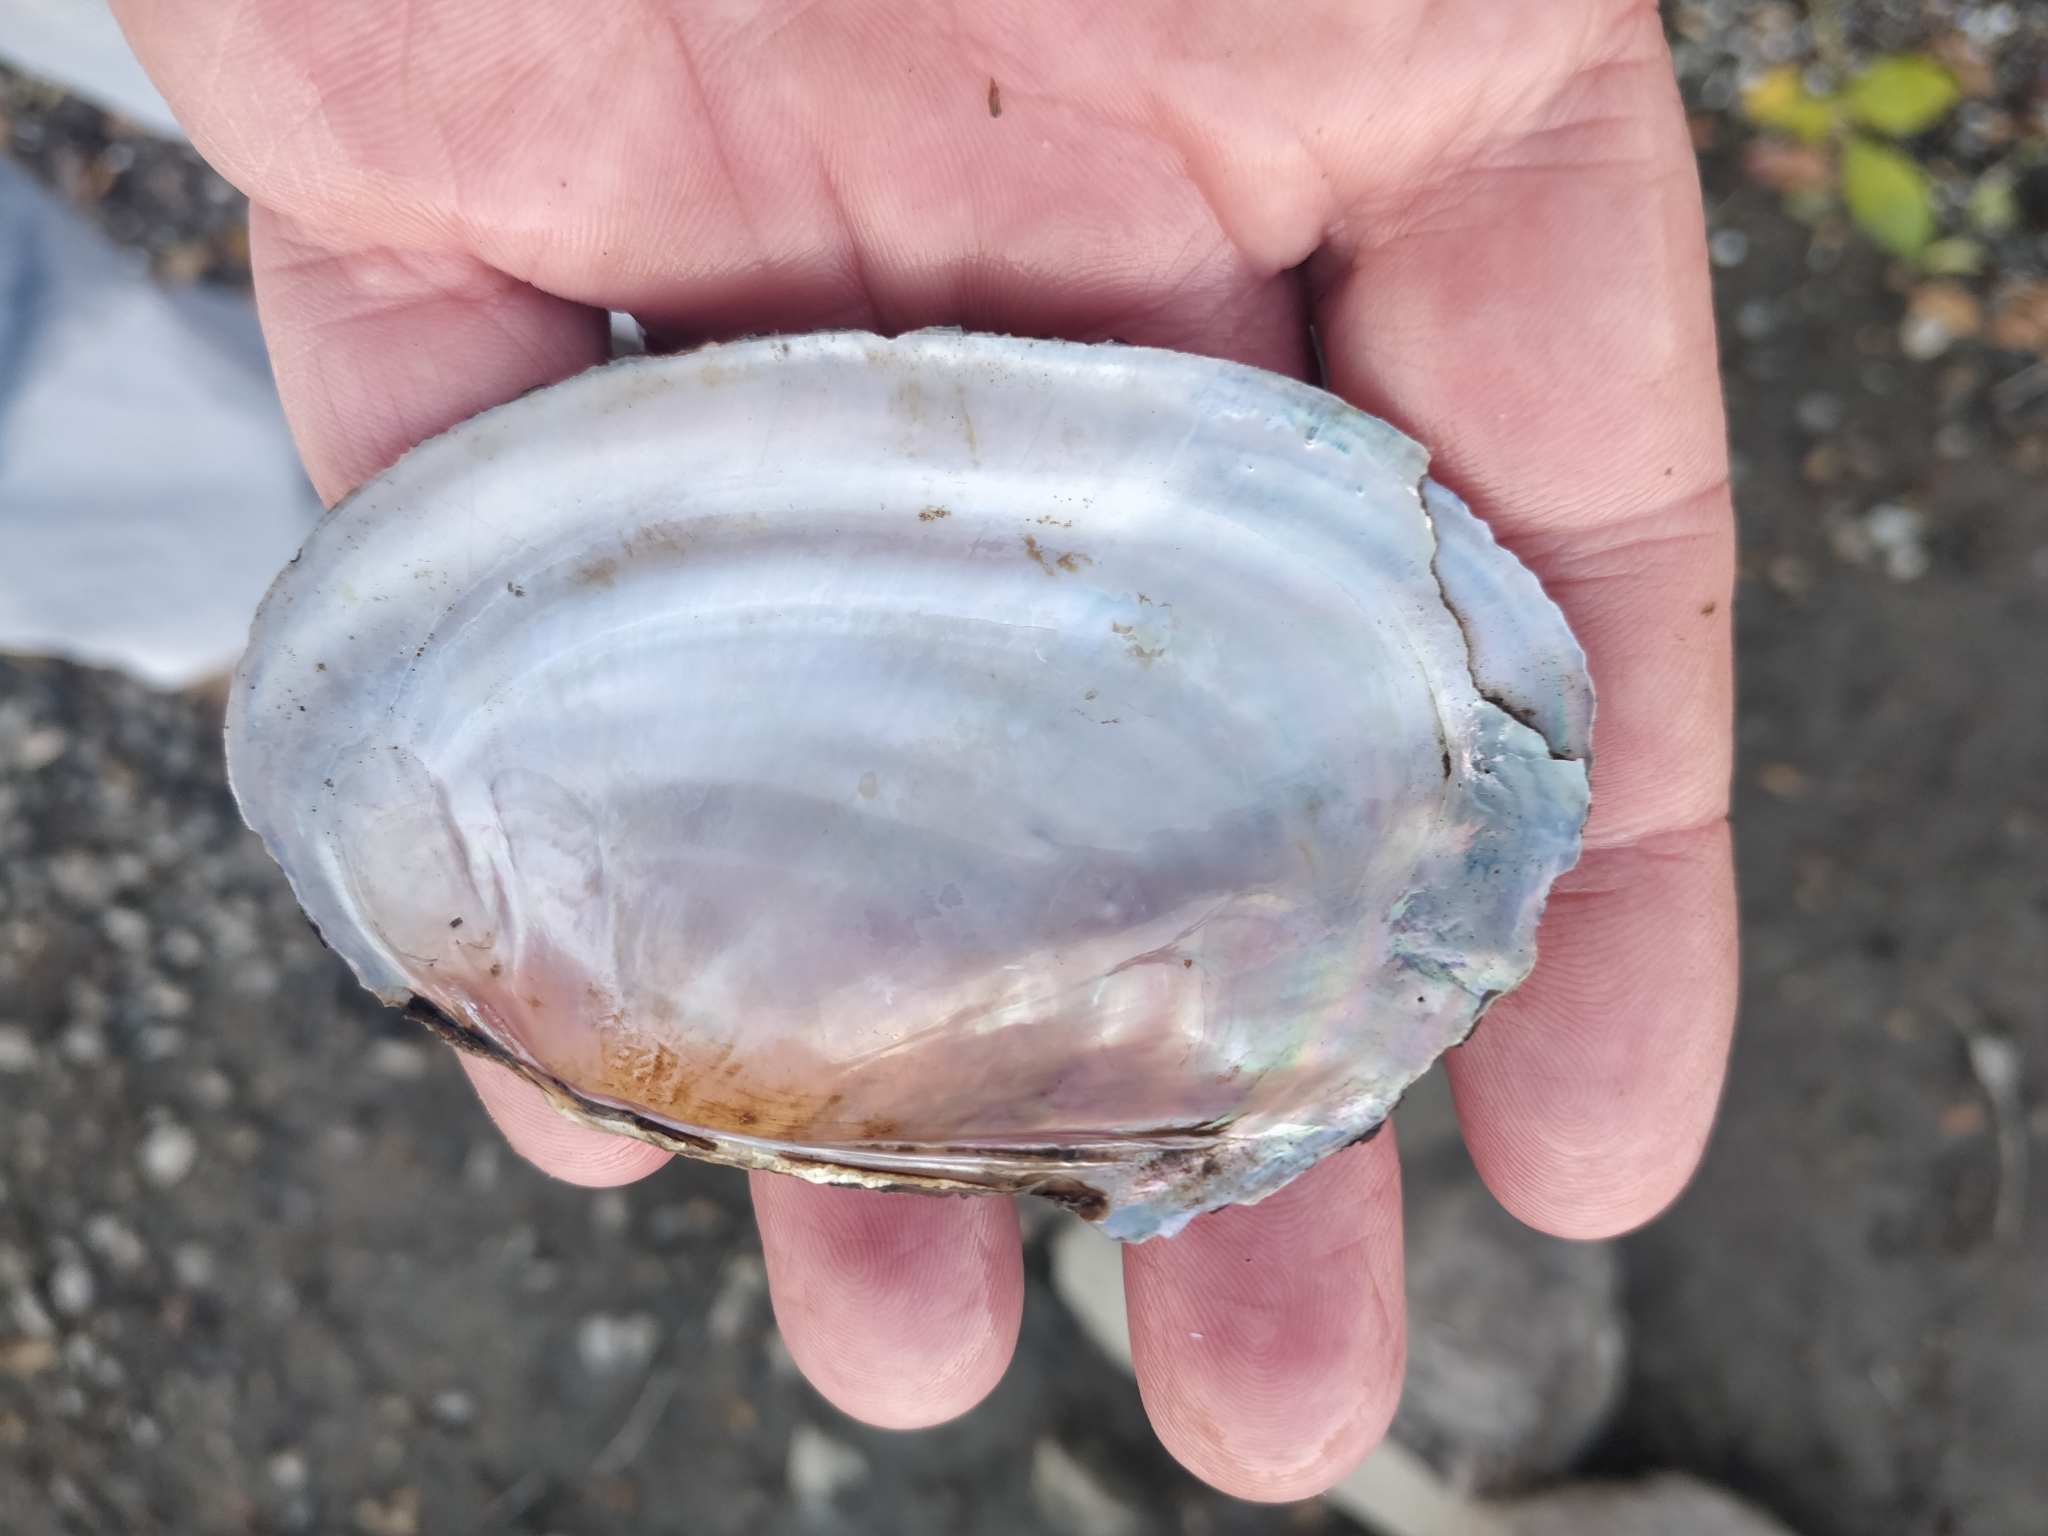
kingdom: Animalia
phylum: Mollusca
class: Bivalvia
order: Unionida
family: Unionidae
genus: Potamilus
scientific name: Potamilus ohiensis
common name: Pink papershell
